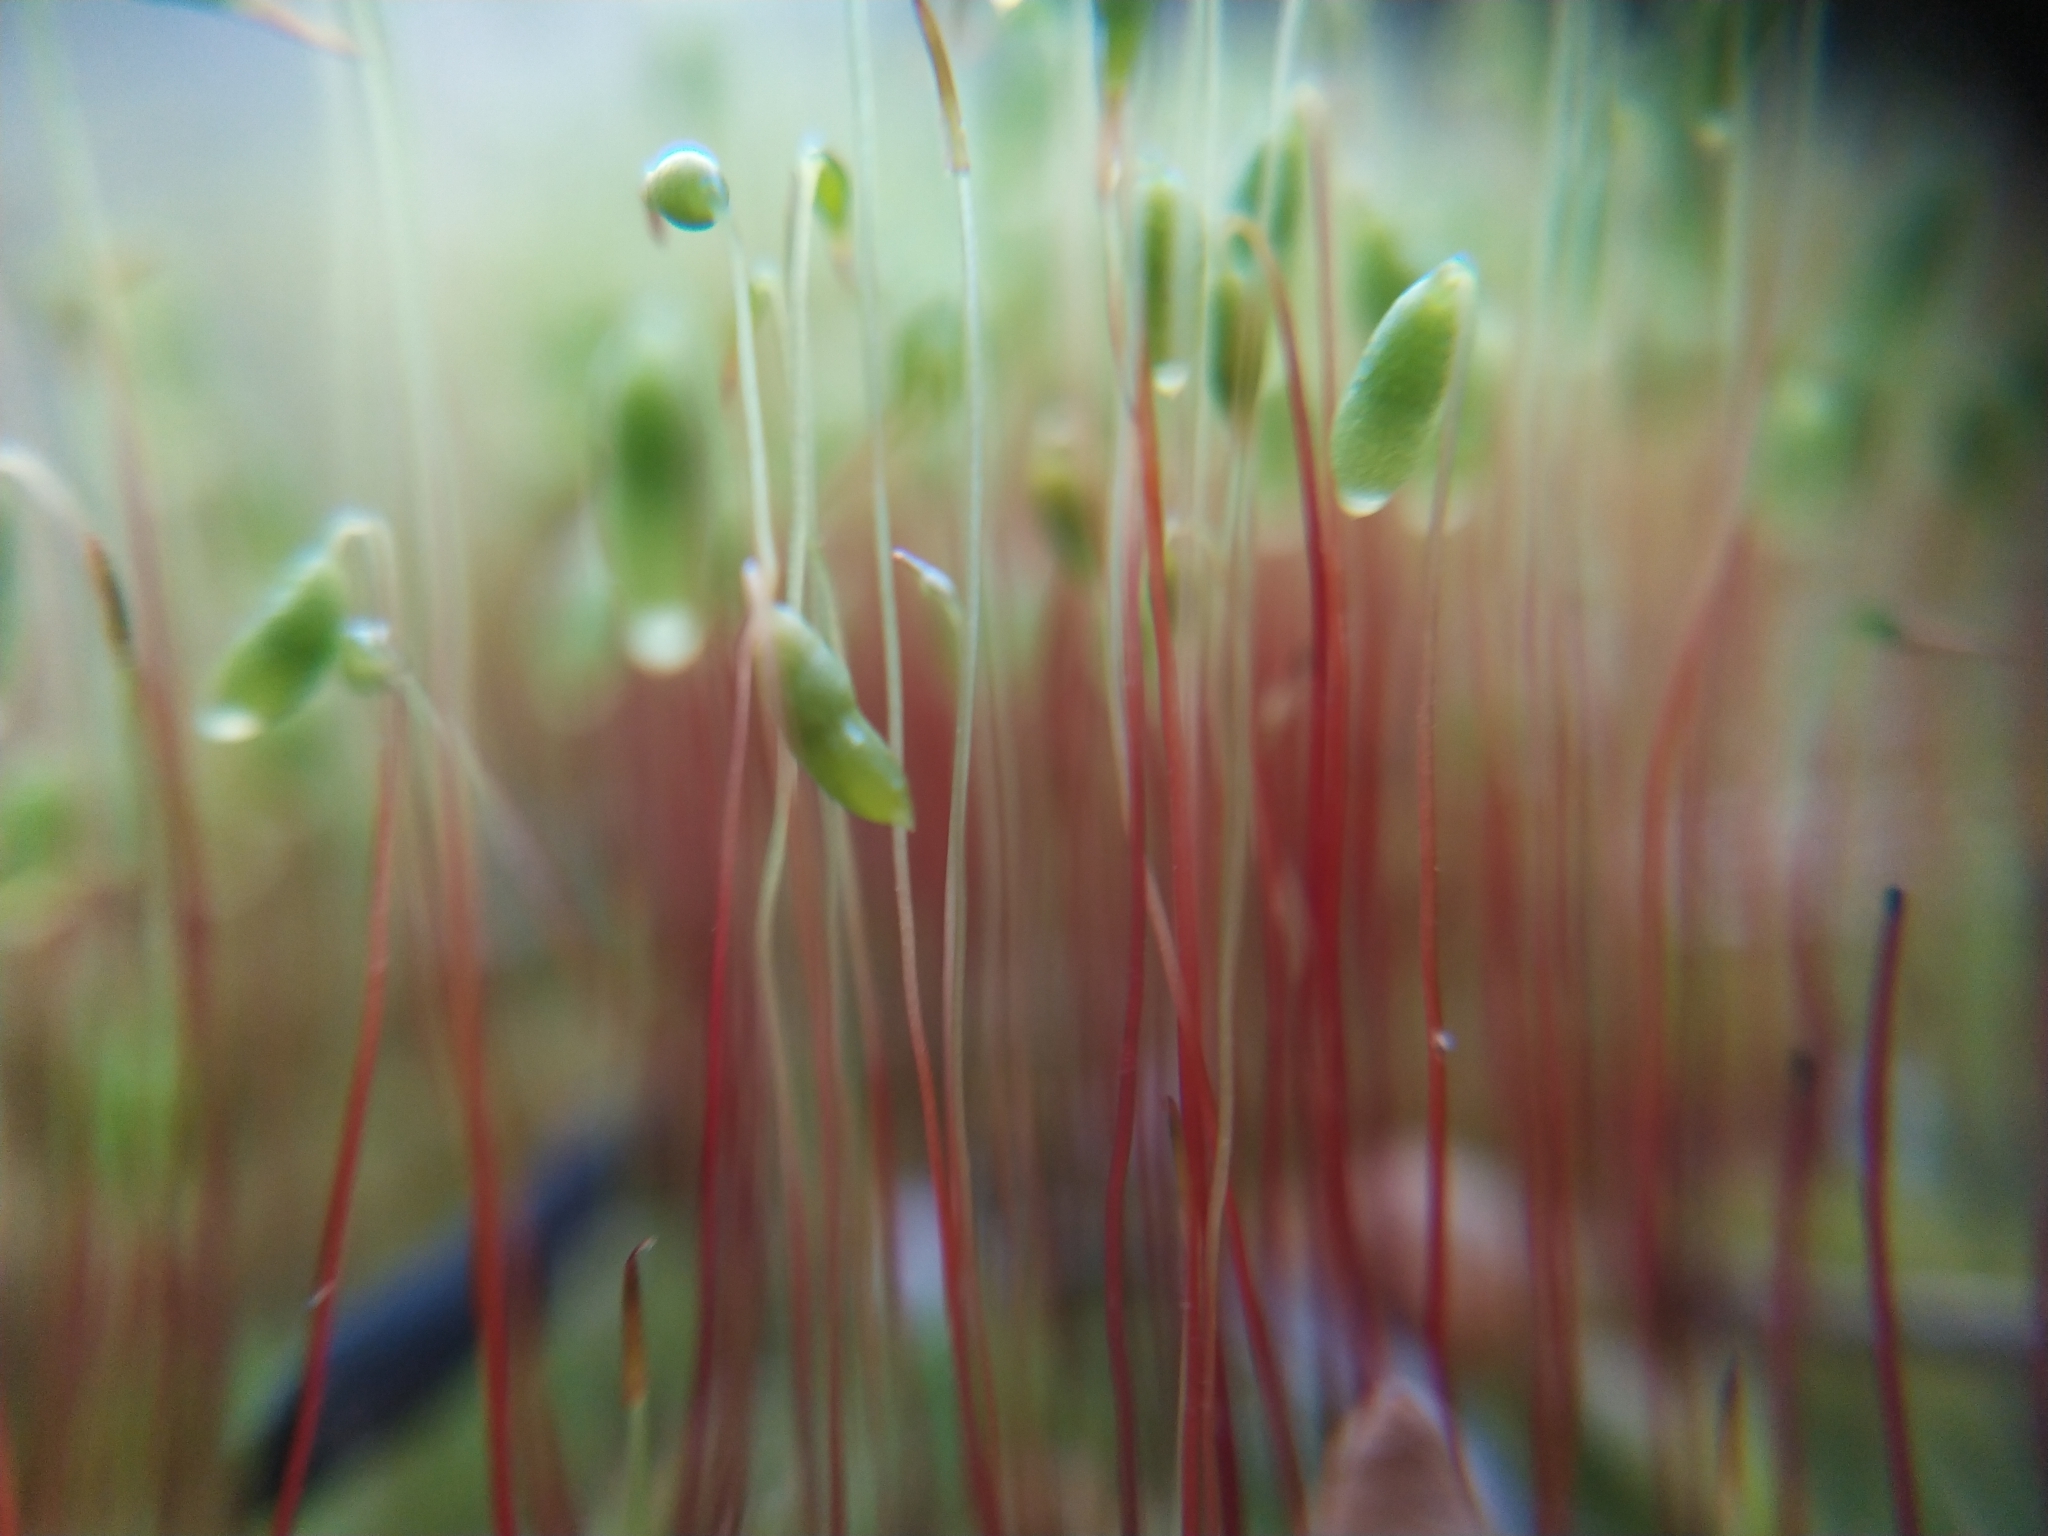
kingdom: Plantae
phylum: Bryophyta
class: Bryopsida
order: Bryales
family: Bryaceae
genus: Gemmabryum
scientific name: Gemmabryum caespiticium
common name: Handbell moss
